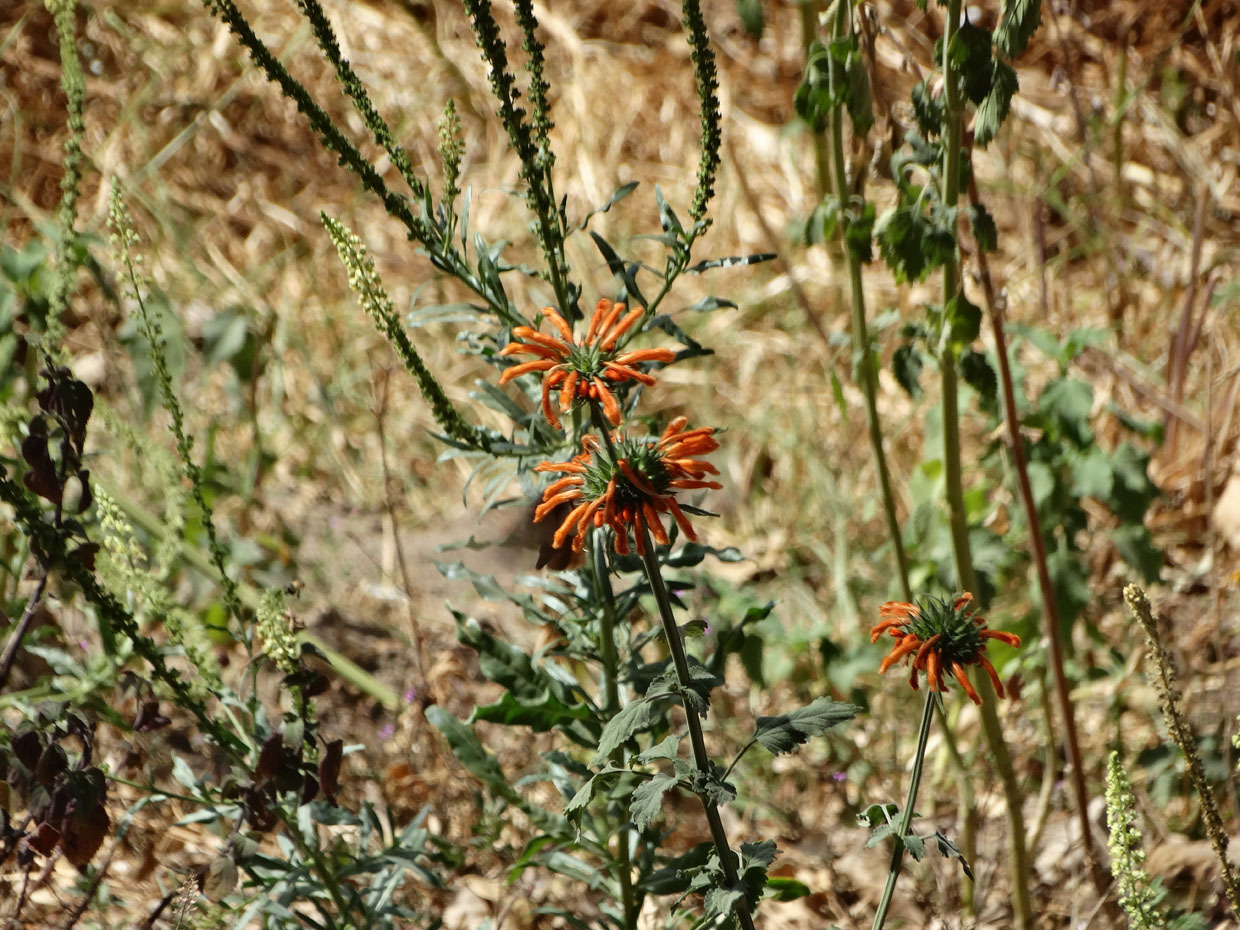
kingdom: Plantae
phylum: Tracheophyta
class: Magnoliopsida
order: Lamiales
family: Lamiaceae
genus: Leonotis
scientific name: Leonotis nepetifolia
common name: Christmas candlestick
